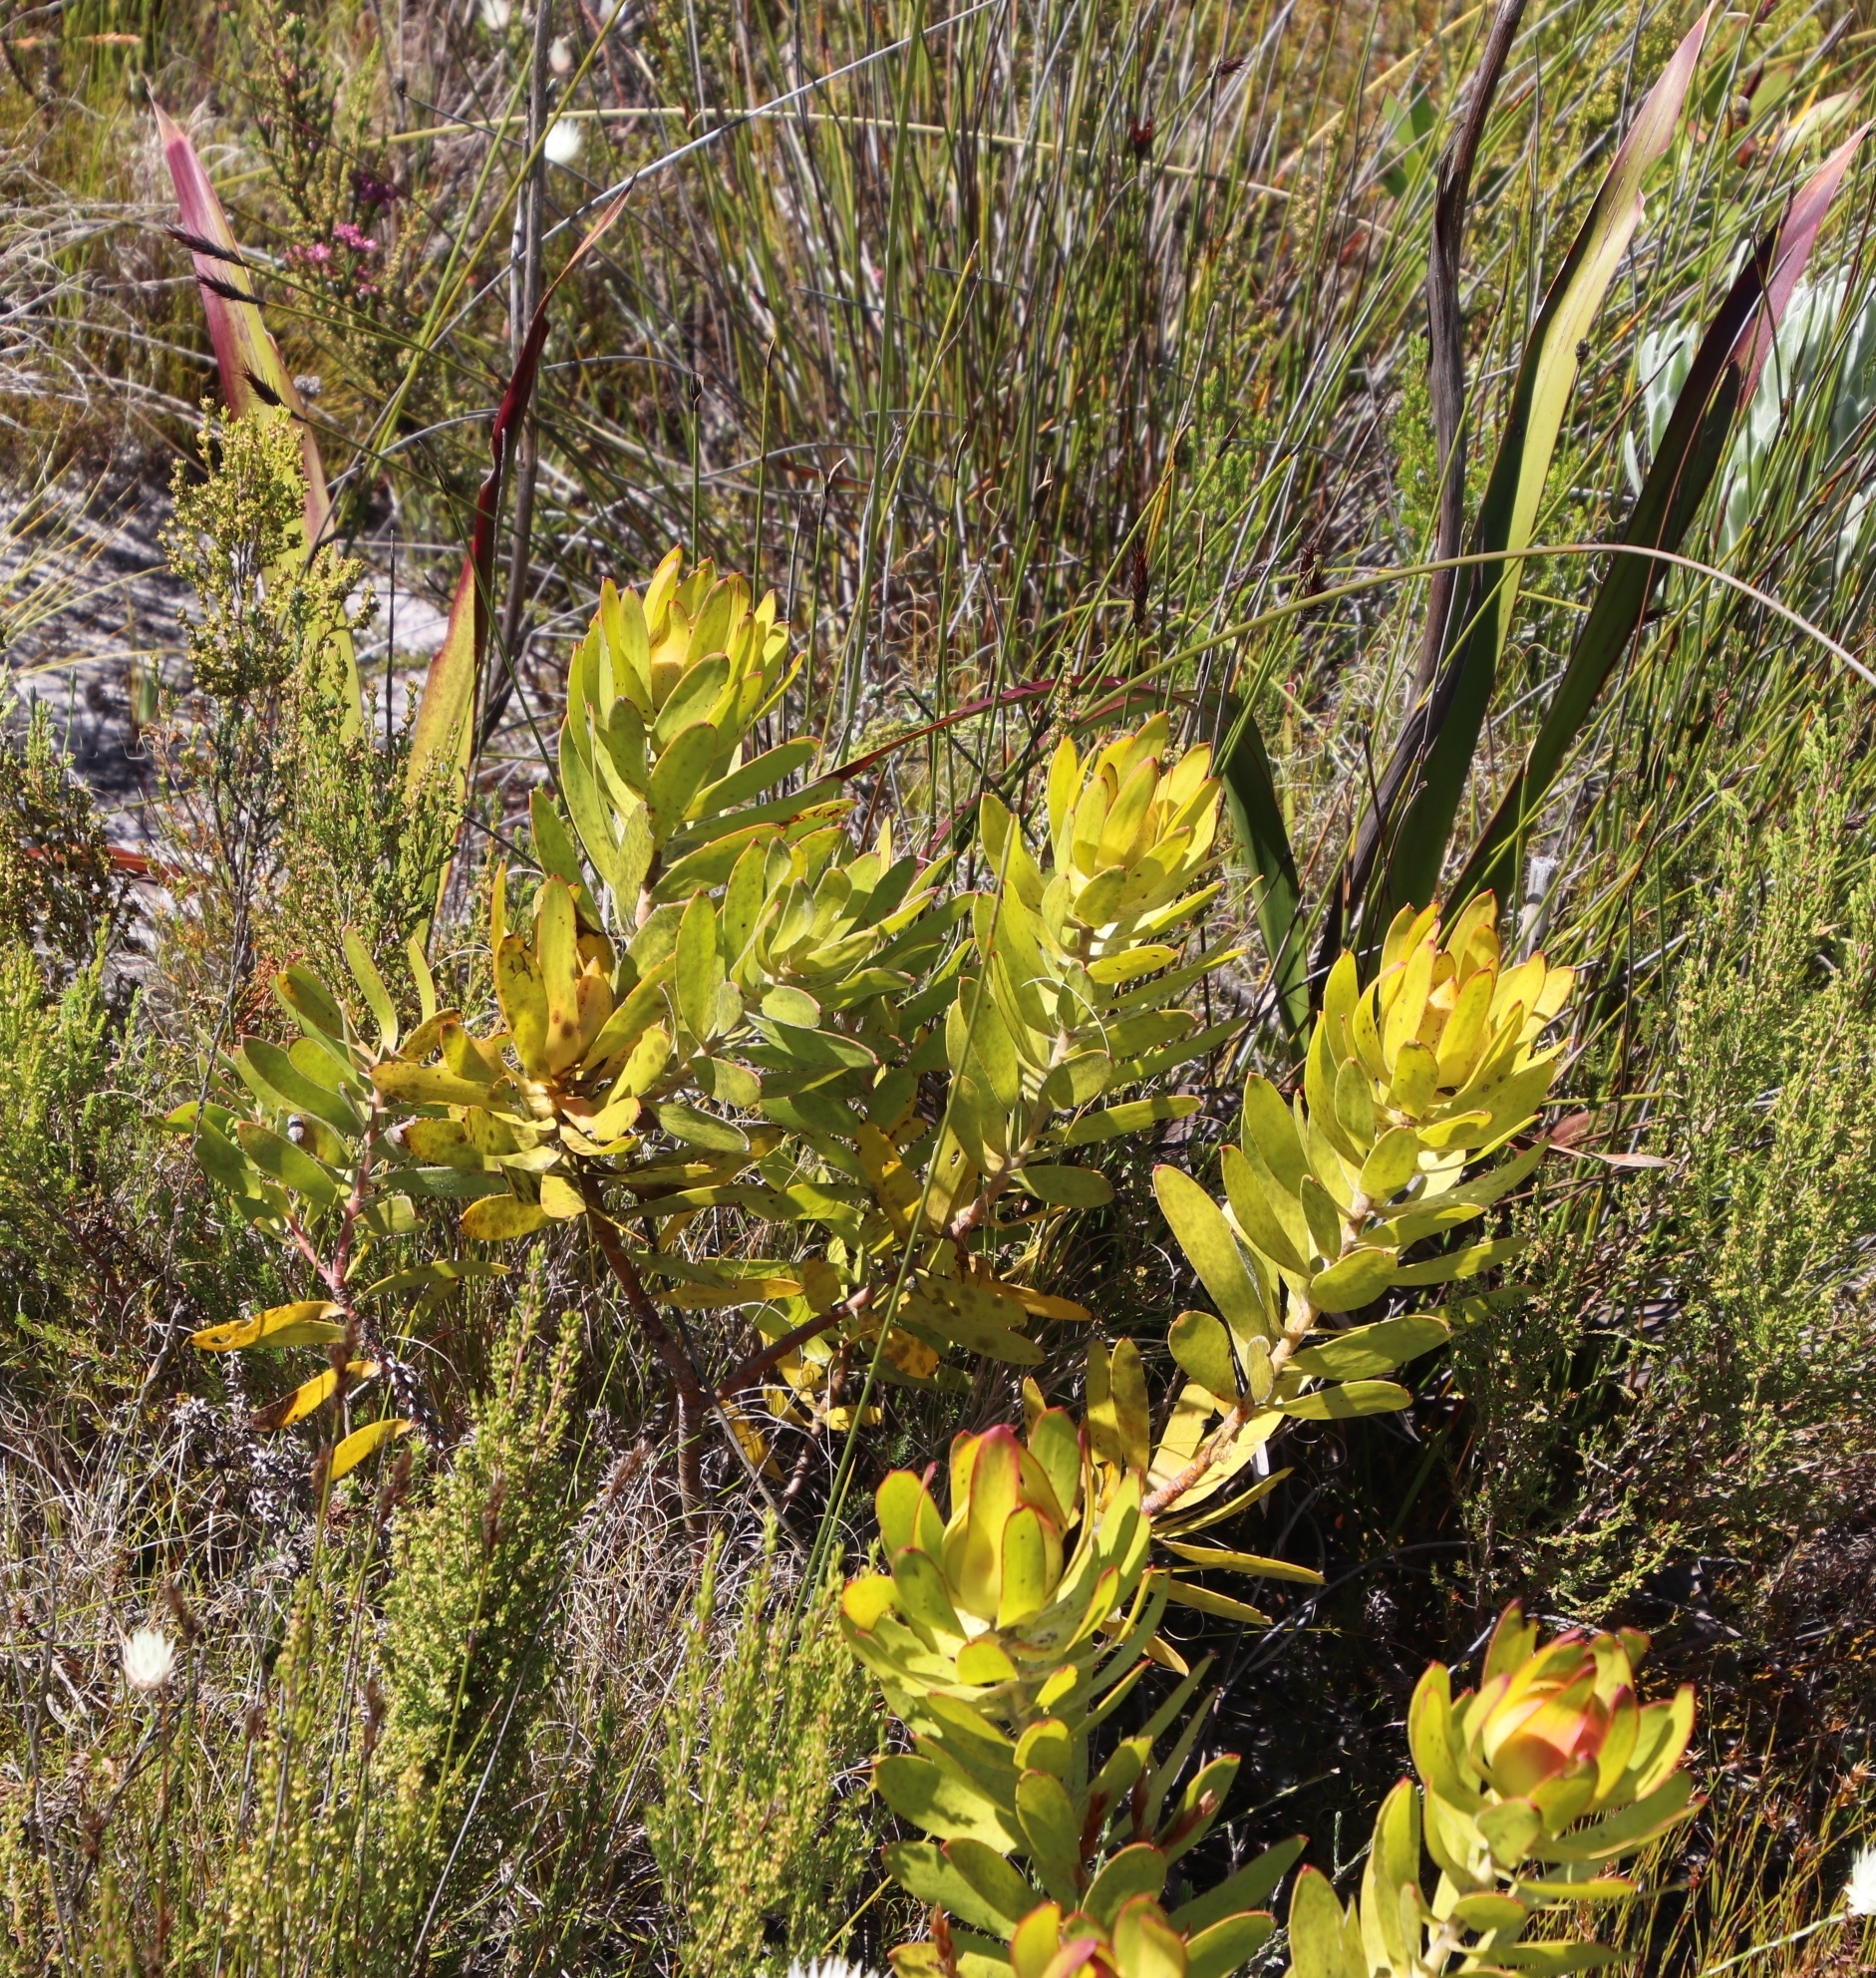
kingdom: Plantae
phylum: Tracheophyta
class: Magnoliopsida
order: Proteales
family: Proteaceae
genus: Leucadendron
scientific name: Leucadendron laureolum
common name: Golden sunshinebush
